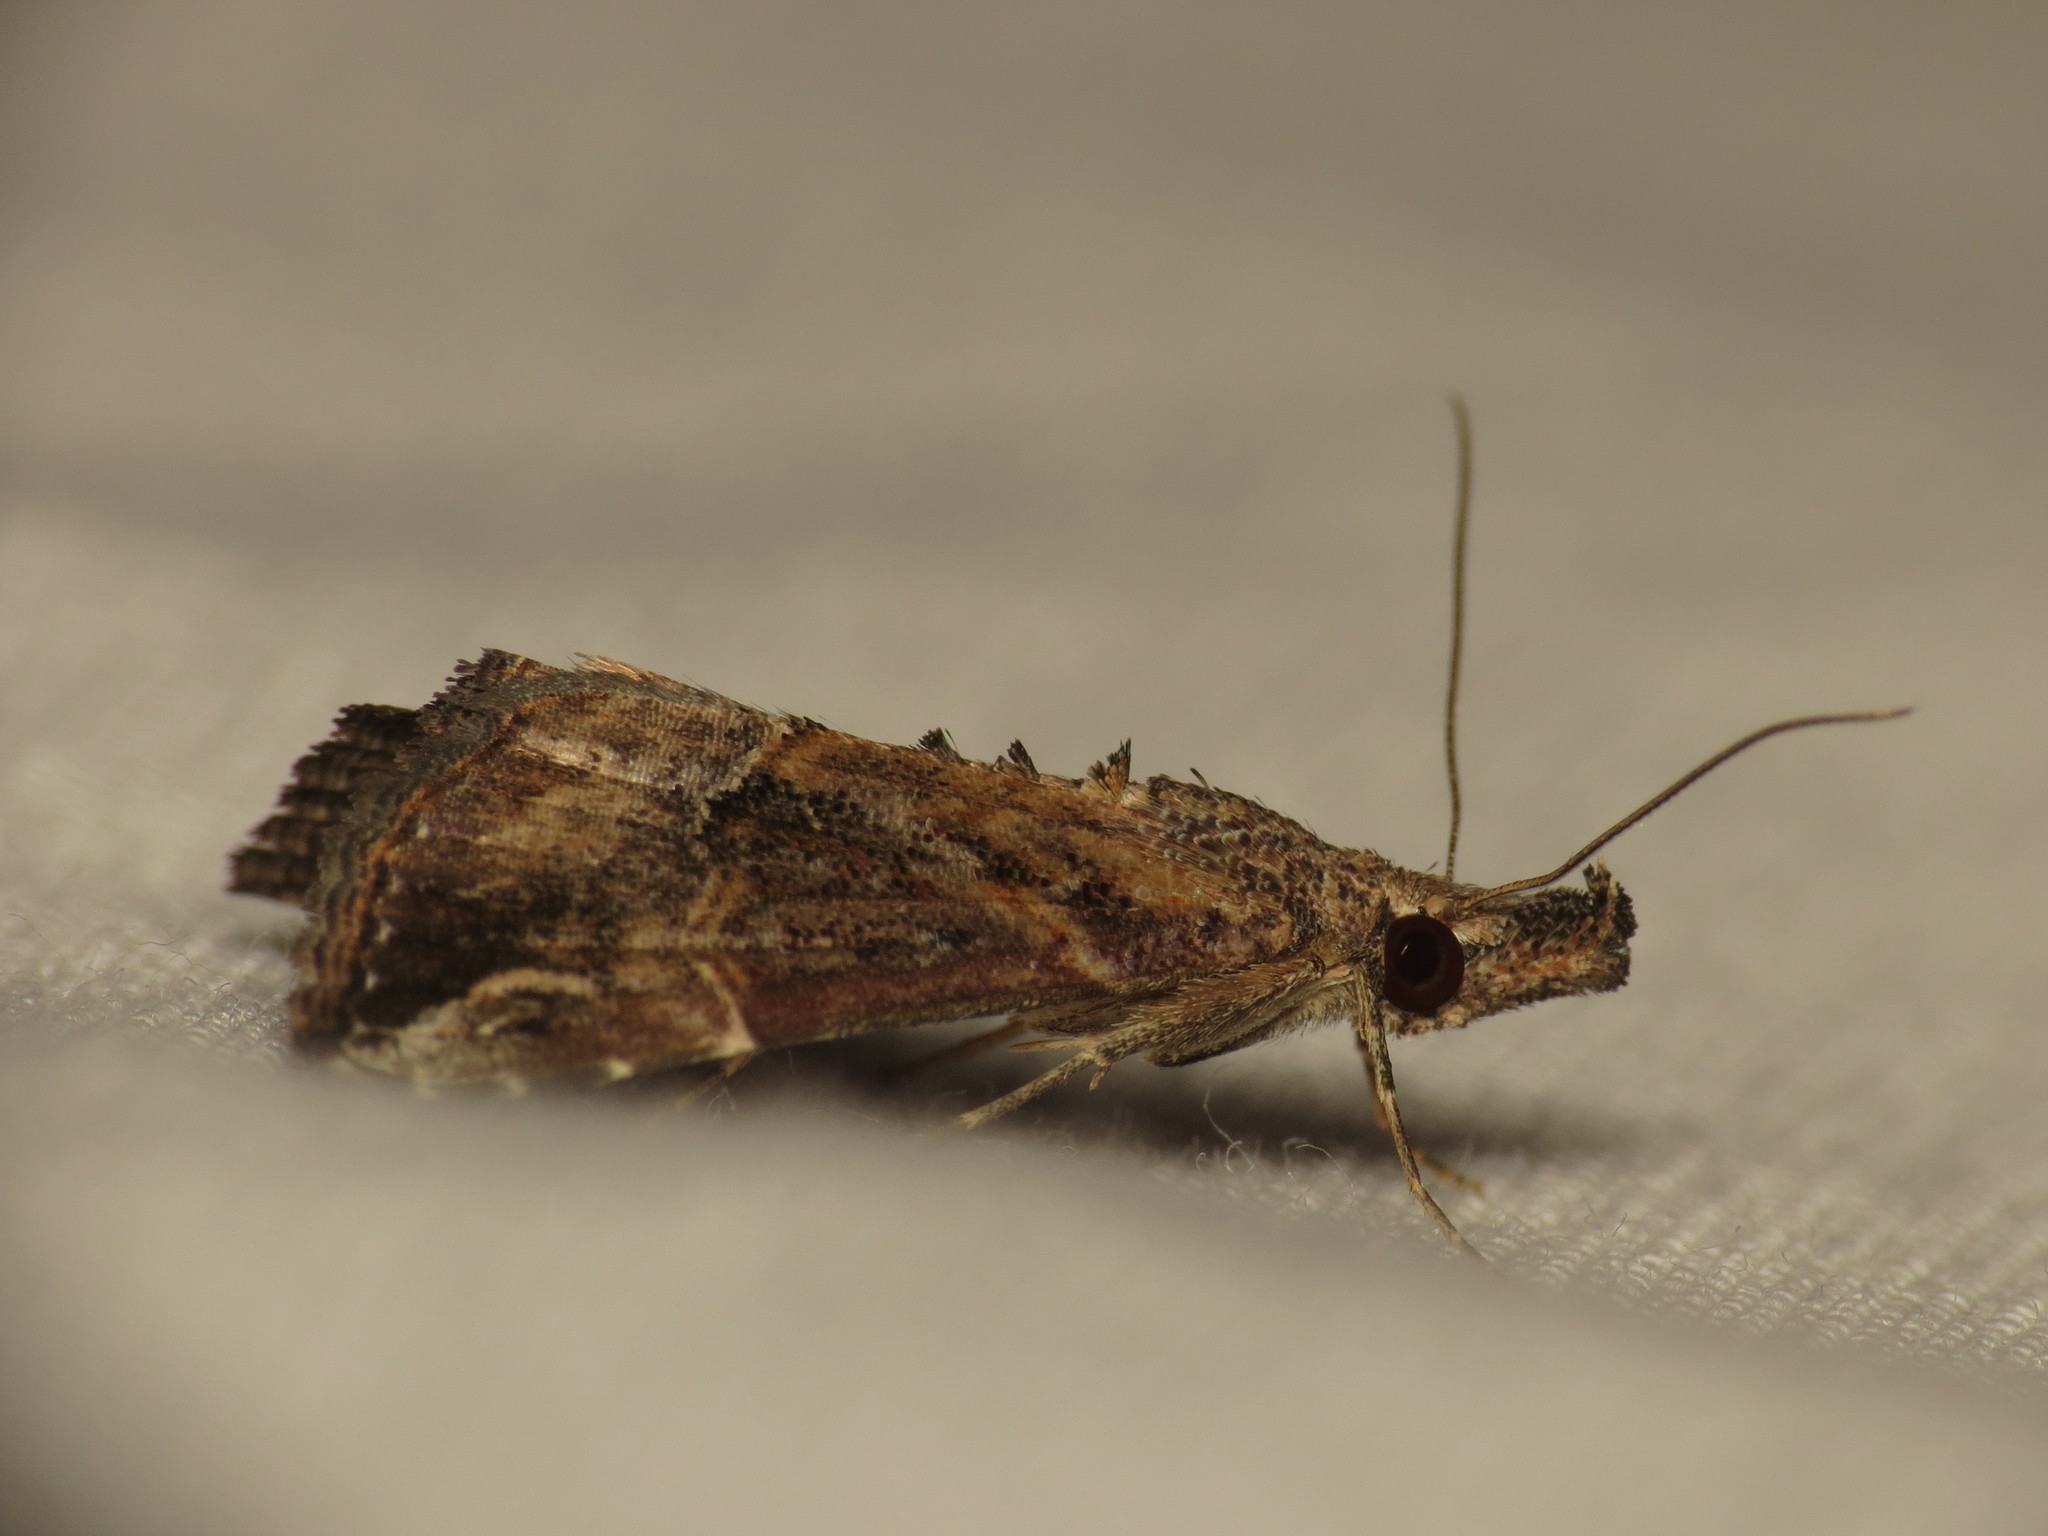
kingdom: Animalia
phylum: Arthropoda
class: Insecta
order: Lepidoptera
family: Erebidae
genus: Hypena
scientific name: Hypena commixtalis
